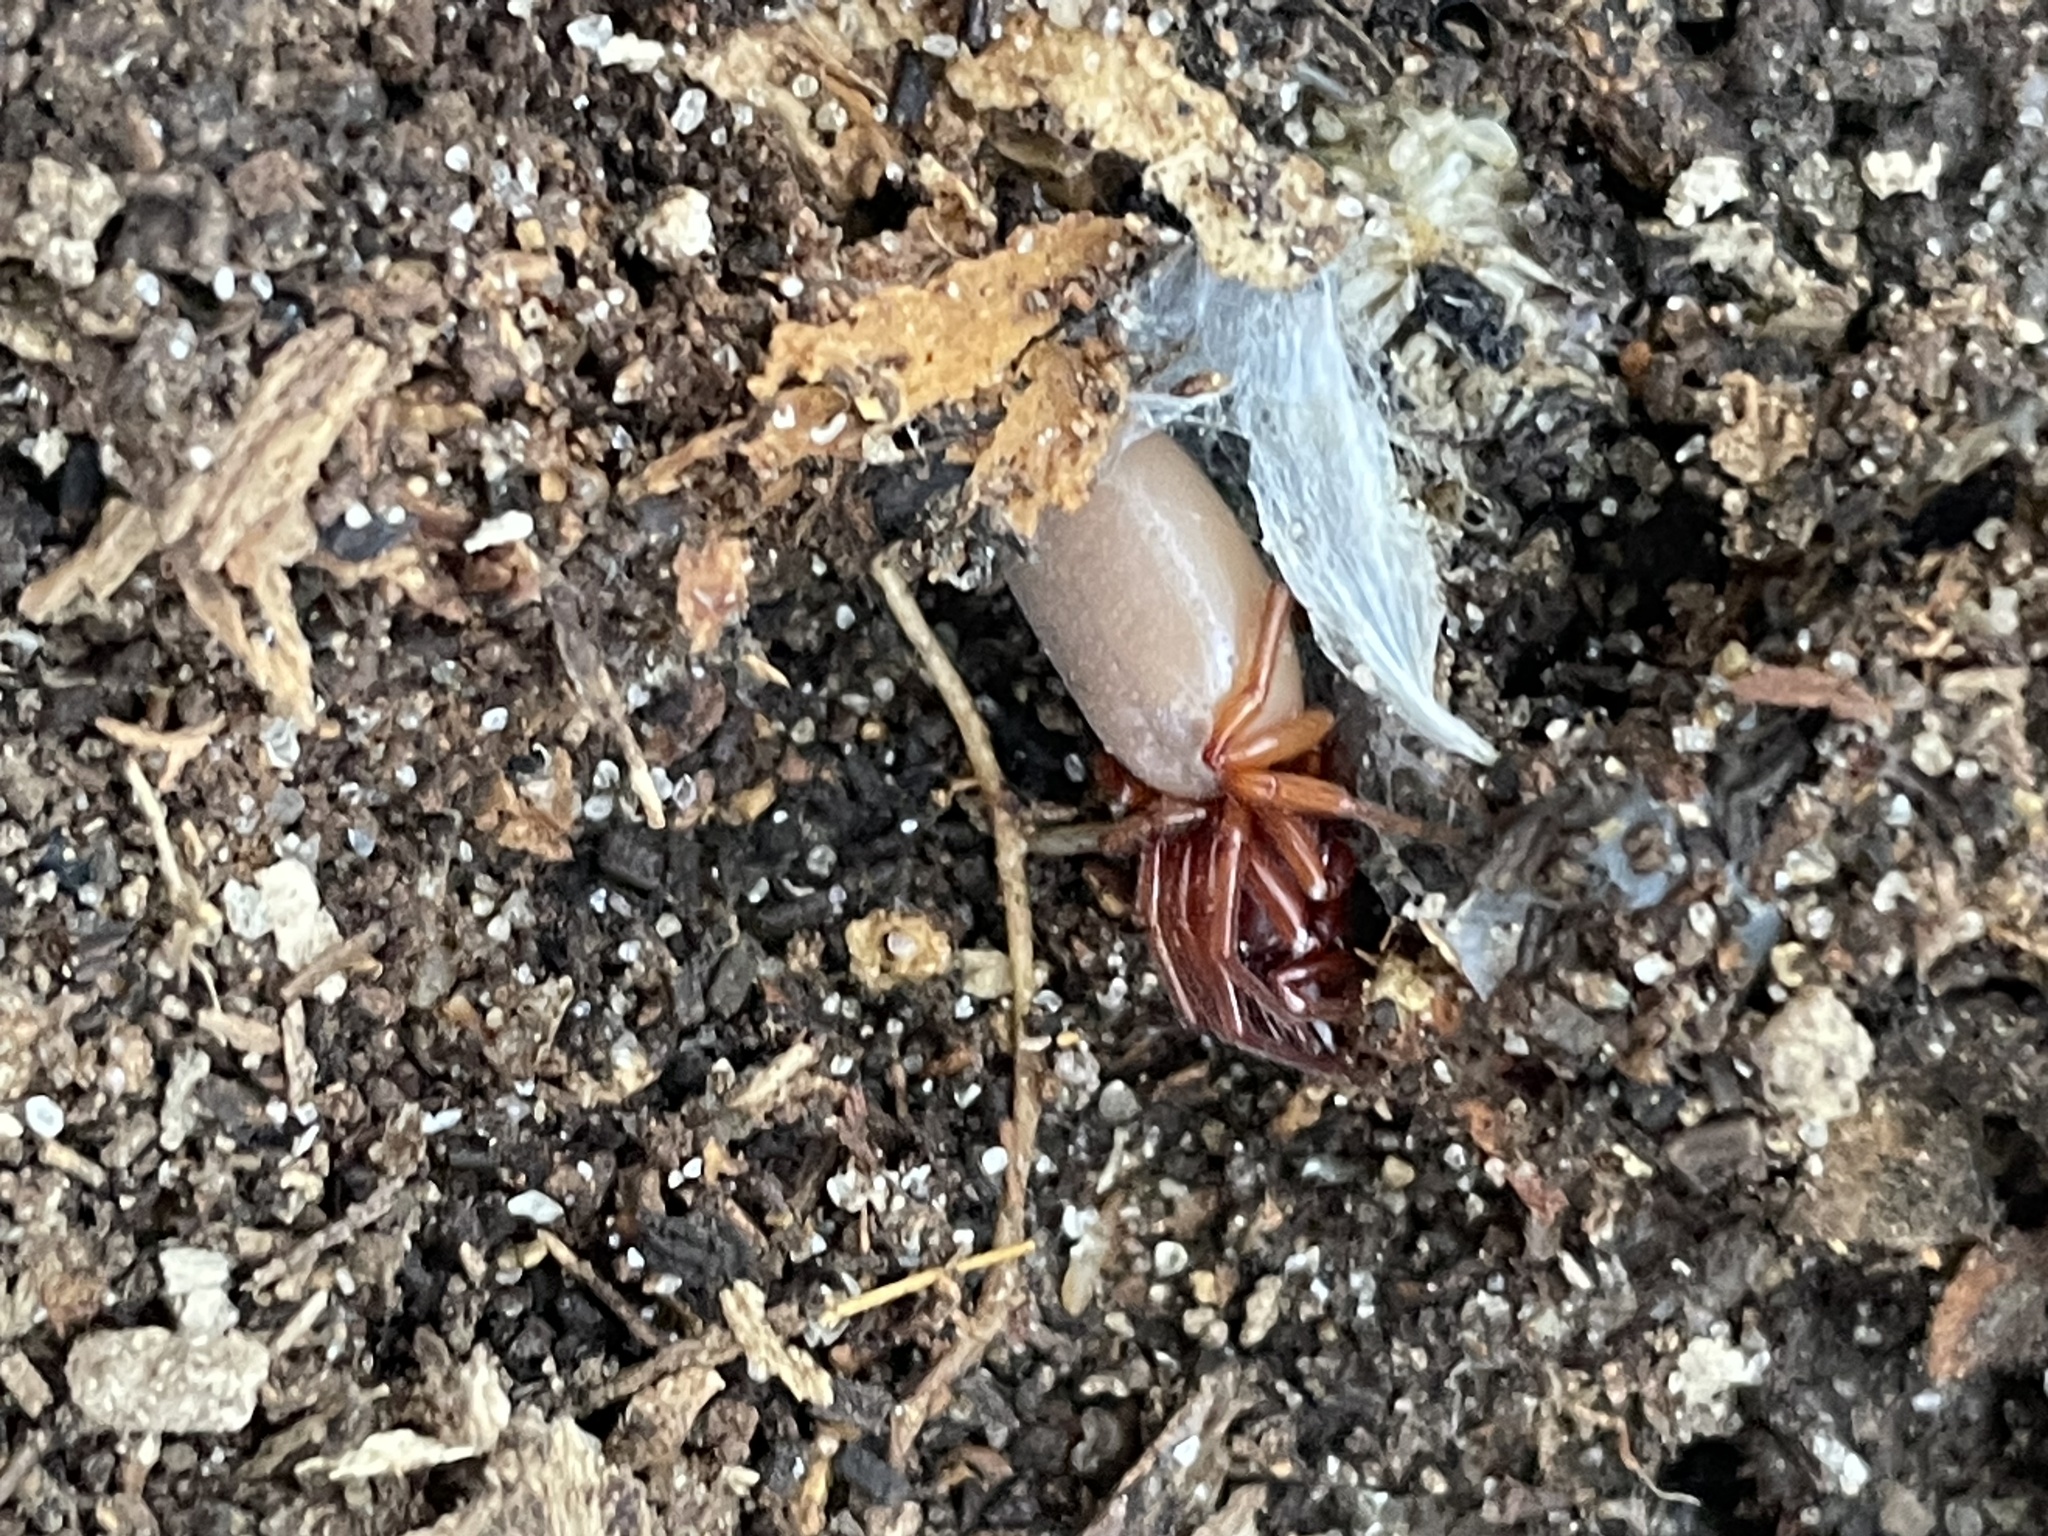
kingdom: Animalia
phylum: Arthropoda
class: Arachnida
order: Araneae
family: Dysderidae
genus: Dysdera
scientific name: Dysdera crocata
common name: Woodlouse spider
